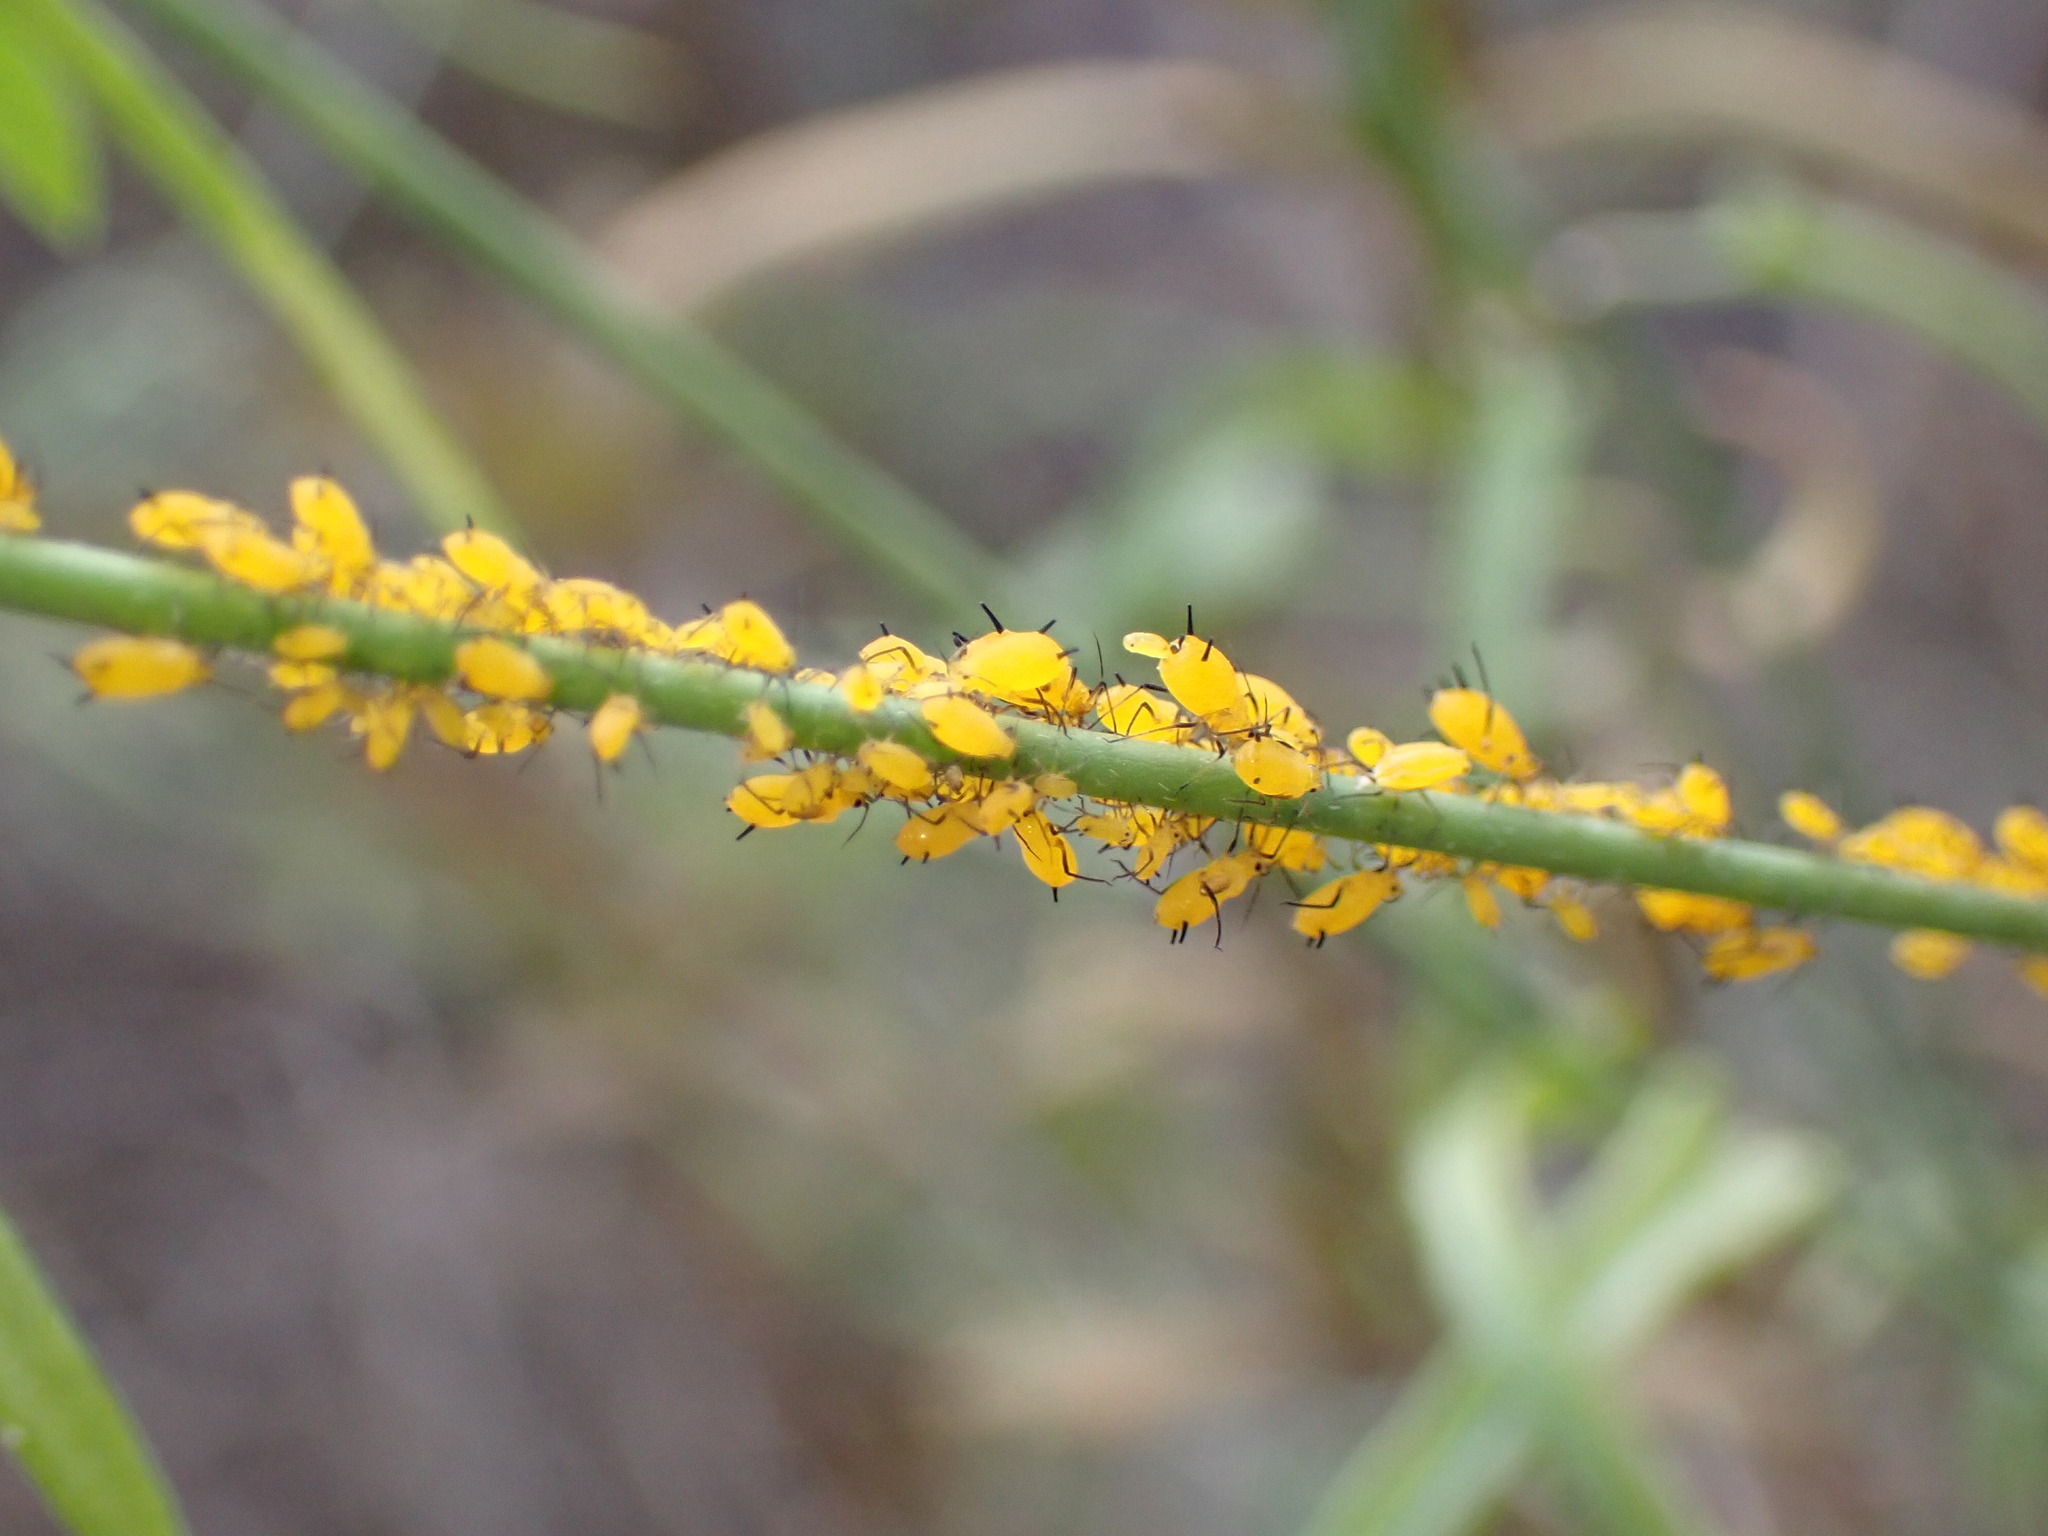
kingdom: Animalia
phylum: Arthropoda
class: Insecta
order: Hemiptera
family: Aphididae
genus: Aphis
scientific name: Aphis nerii
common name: Oleander aphid
